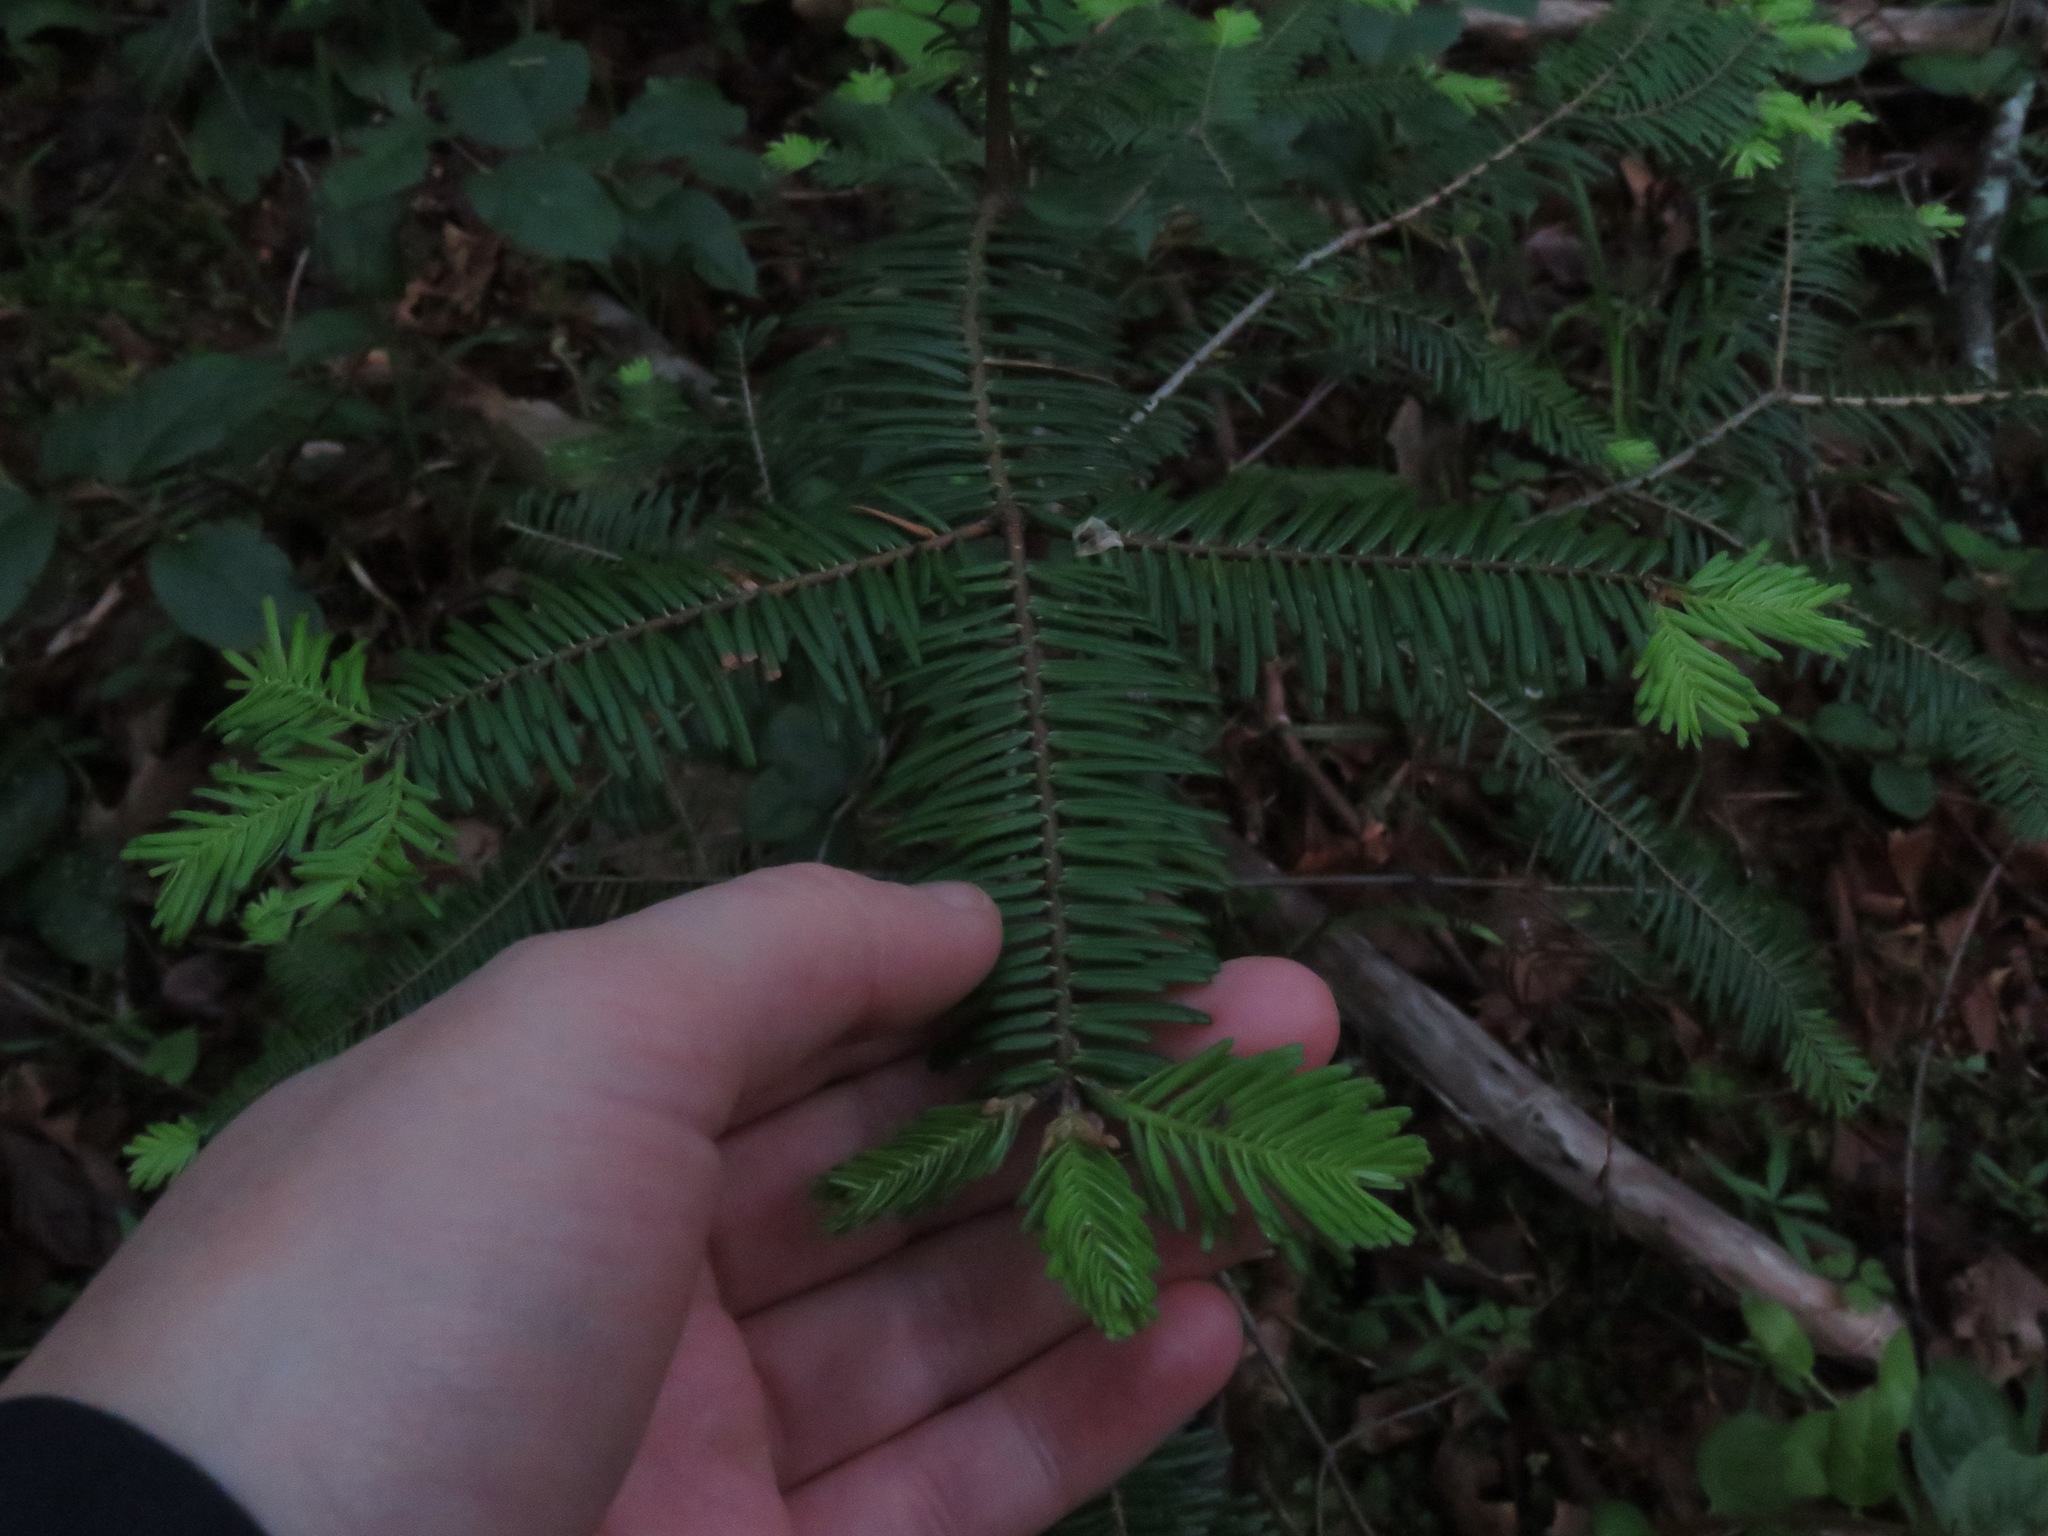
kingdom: Plantae
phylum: Tracheophyta
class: Pinopsida
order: Pinales
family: Pinaceae
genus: Abies
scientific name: Abies grandis
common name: Giant fir
